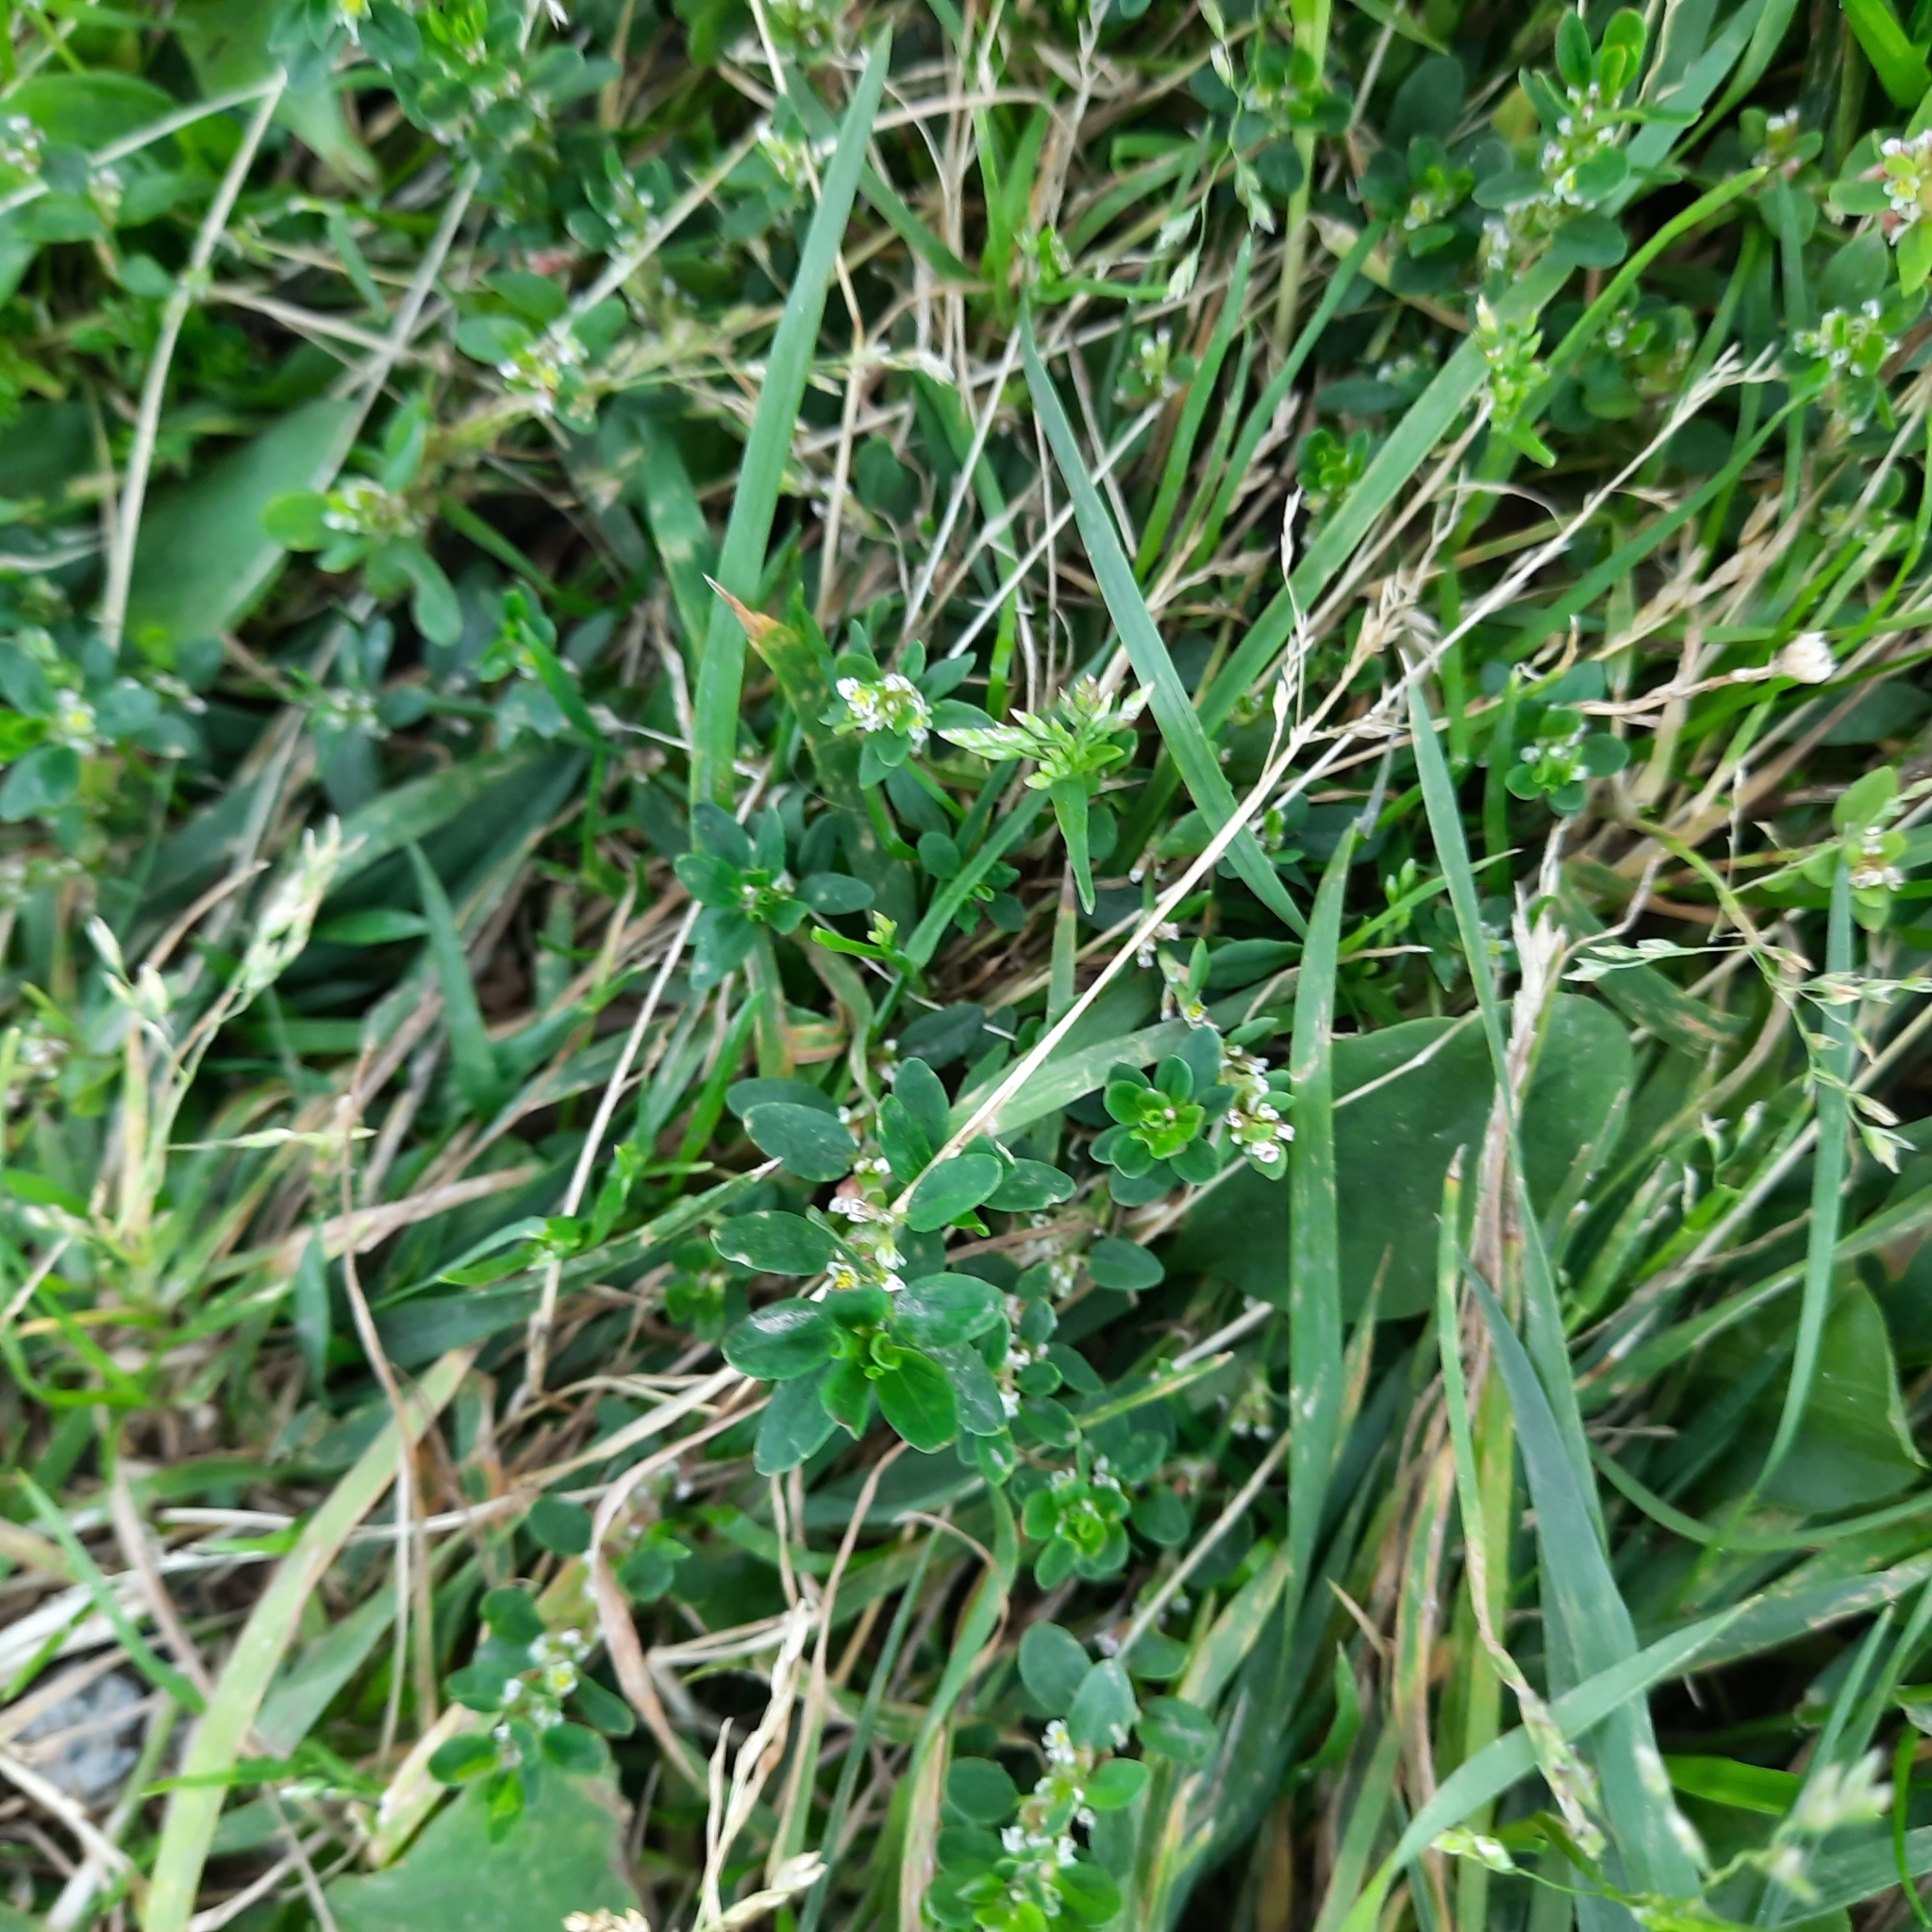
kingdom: Plantae
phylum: Tracheophyta
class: Magnoliopsida
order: Caryophyllales
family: Polygonaceae
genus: Polygonum
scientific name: Polygonum
